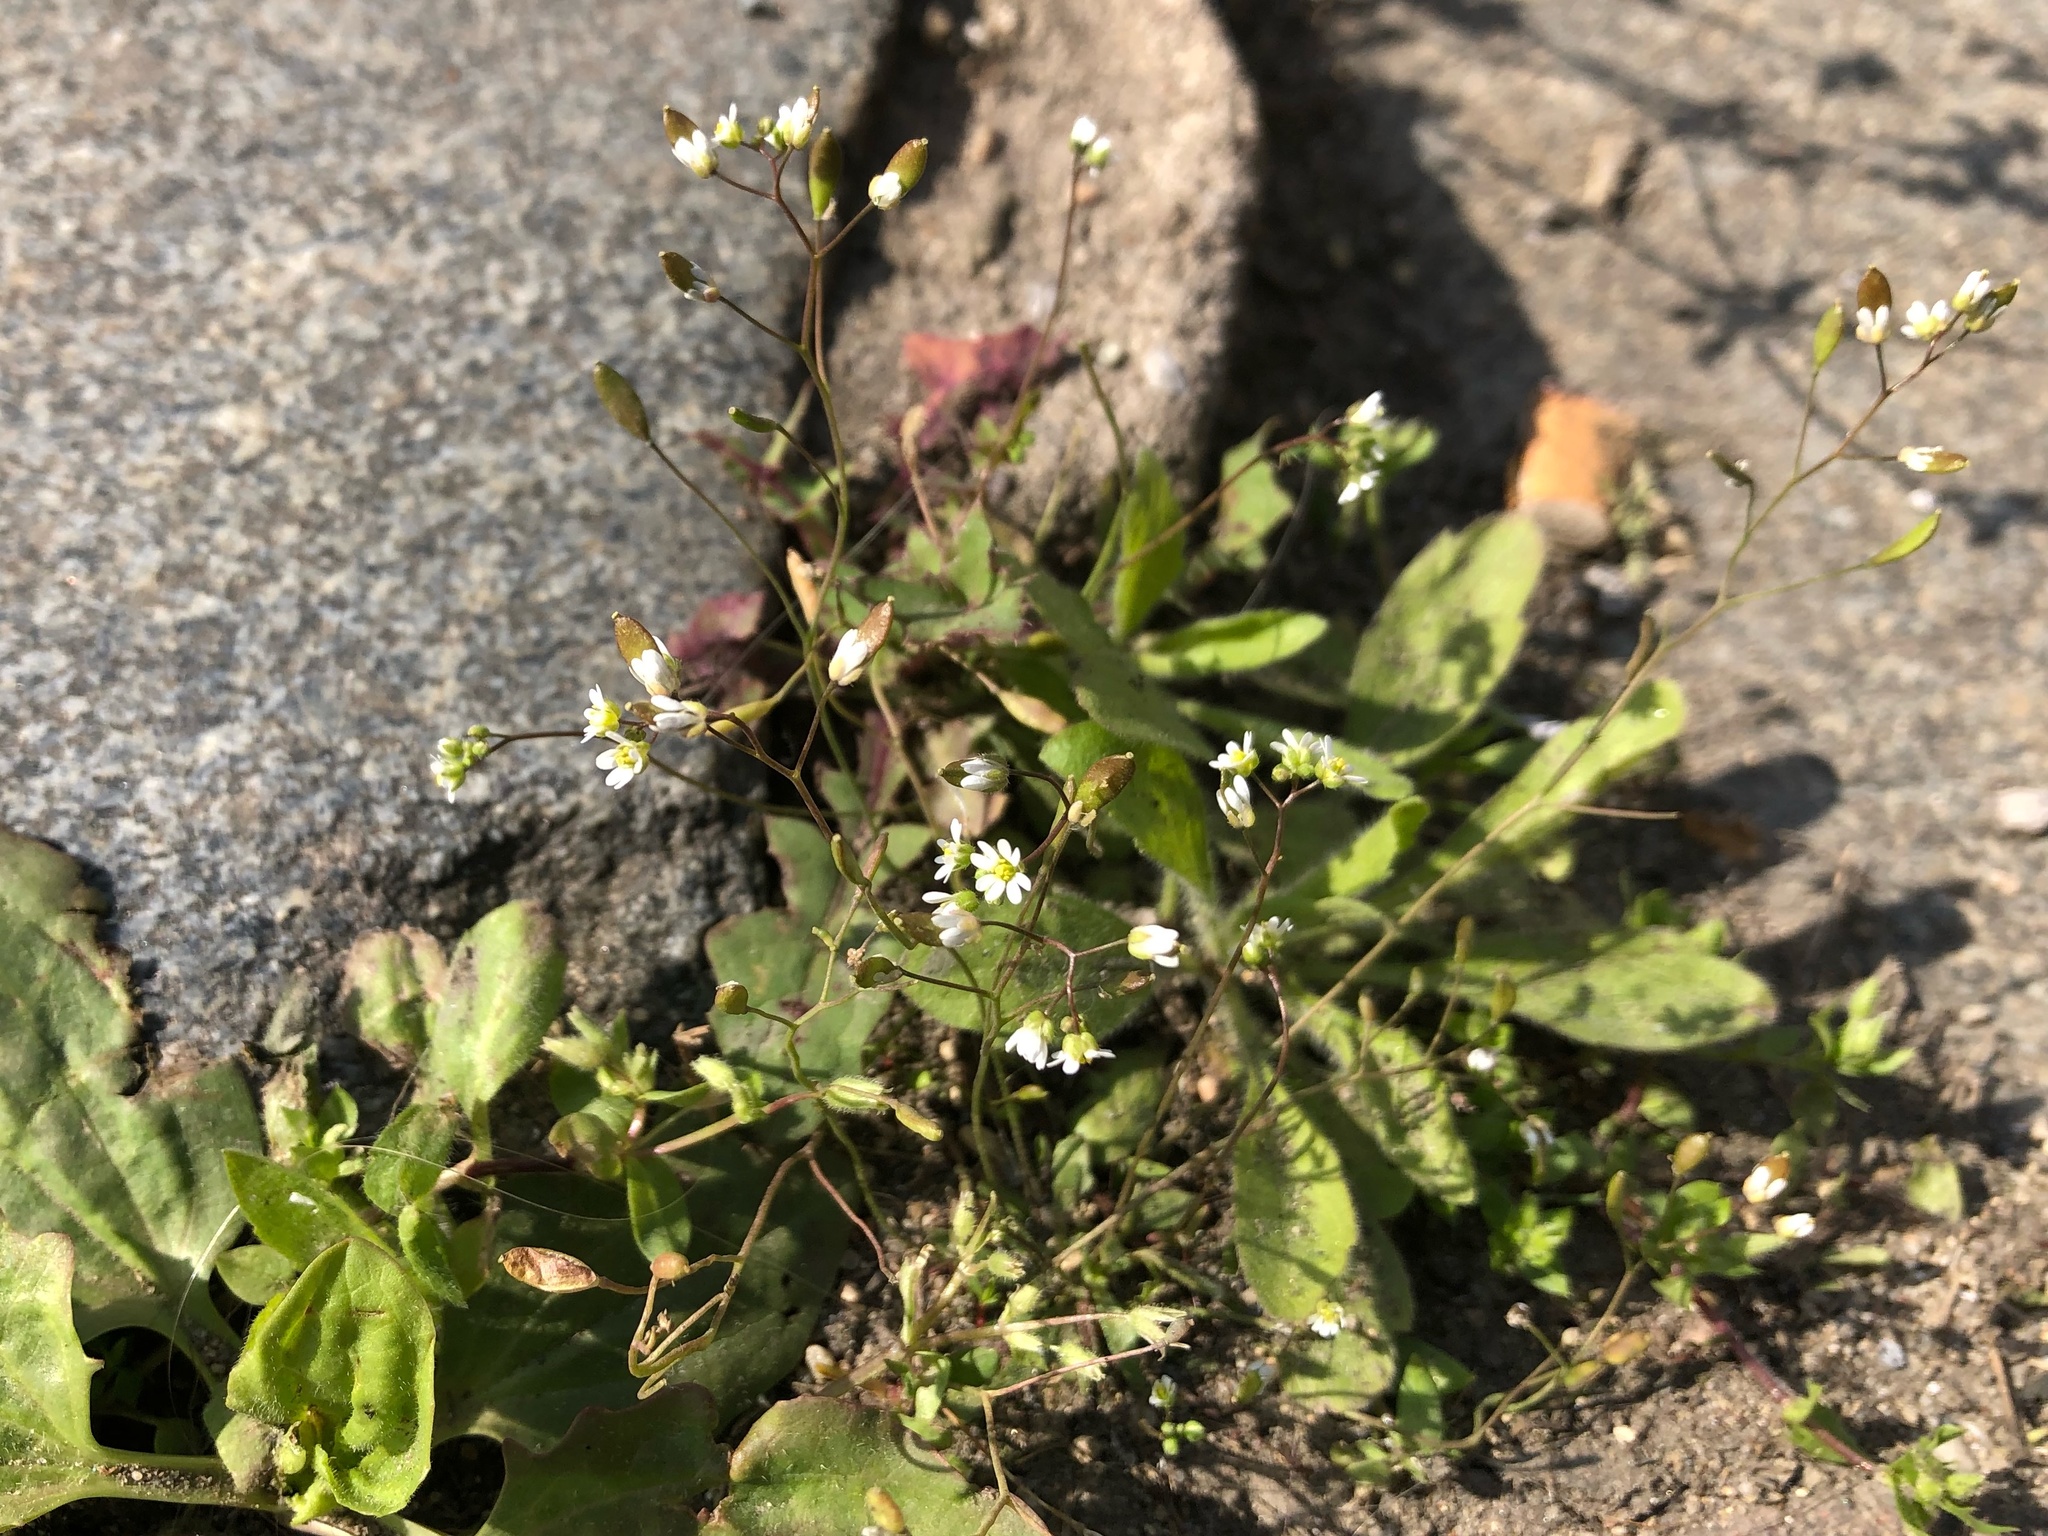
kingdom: Plantae
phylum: Tracheophyta
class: Magnoliopsida
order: Brassicales
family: Brassicaceae
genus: Draba
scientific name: Draba verna
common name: Spring draba
